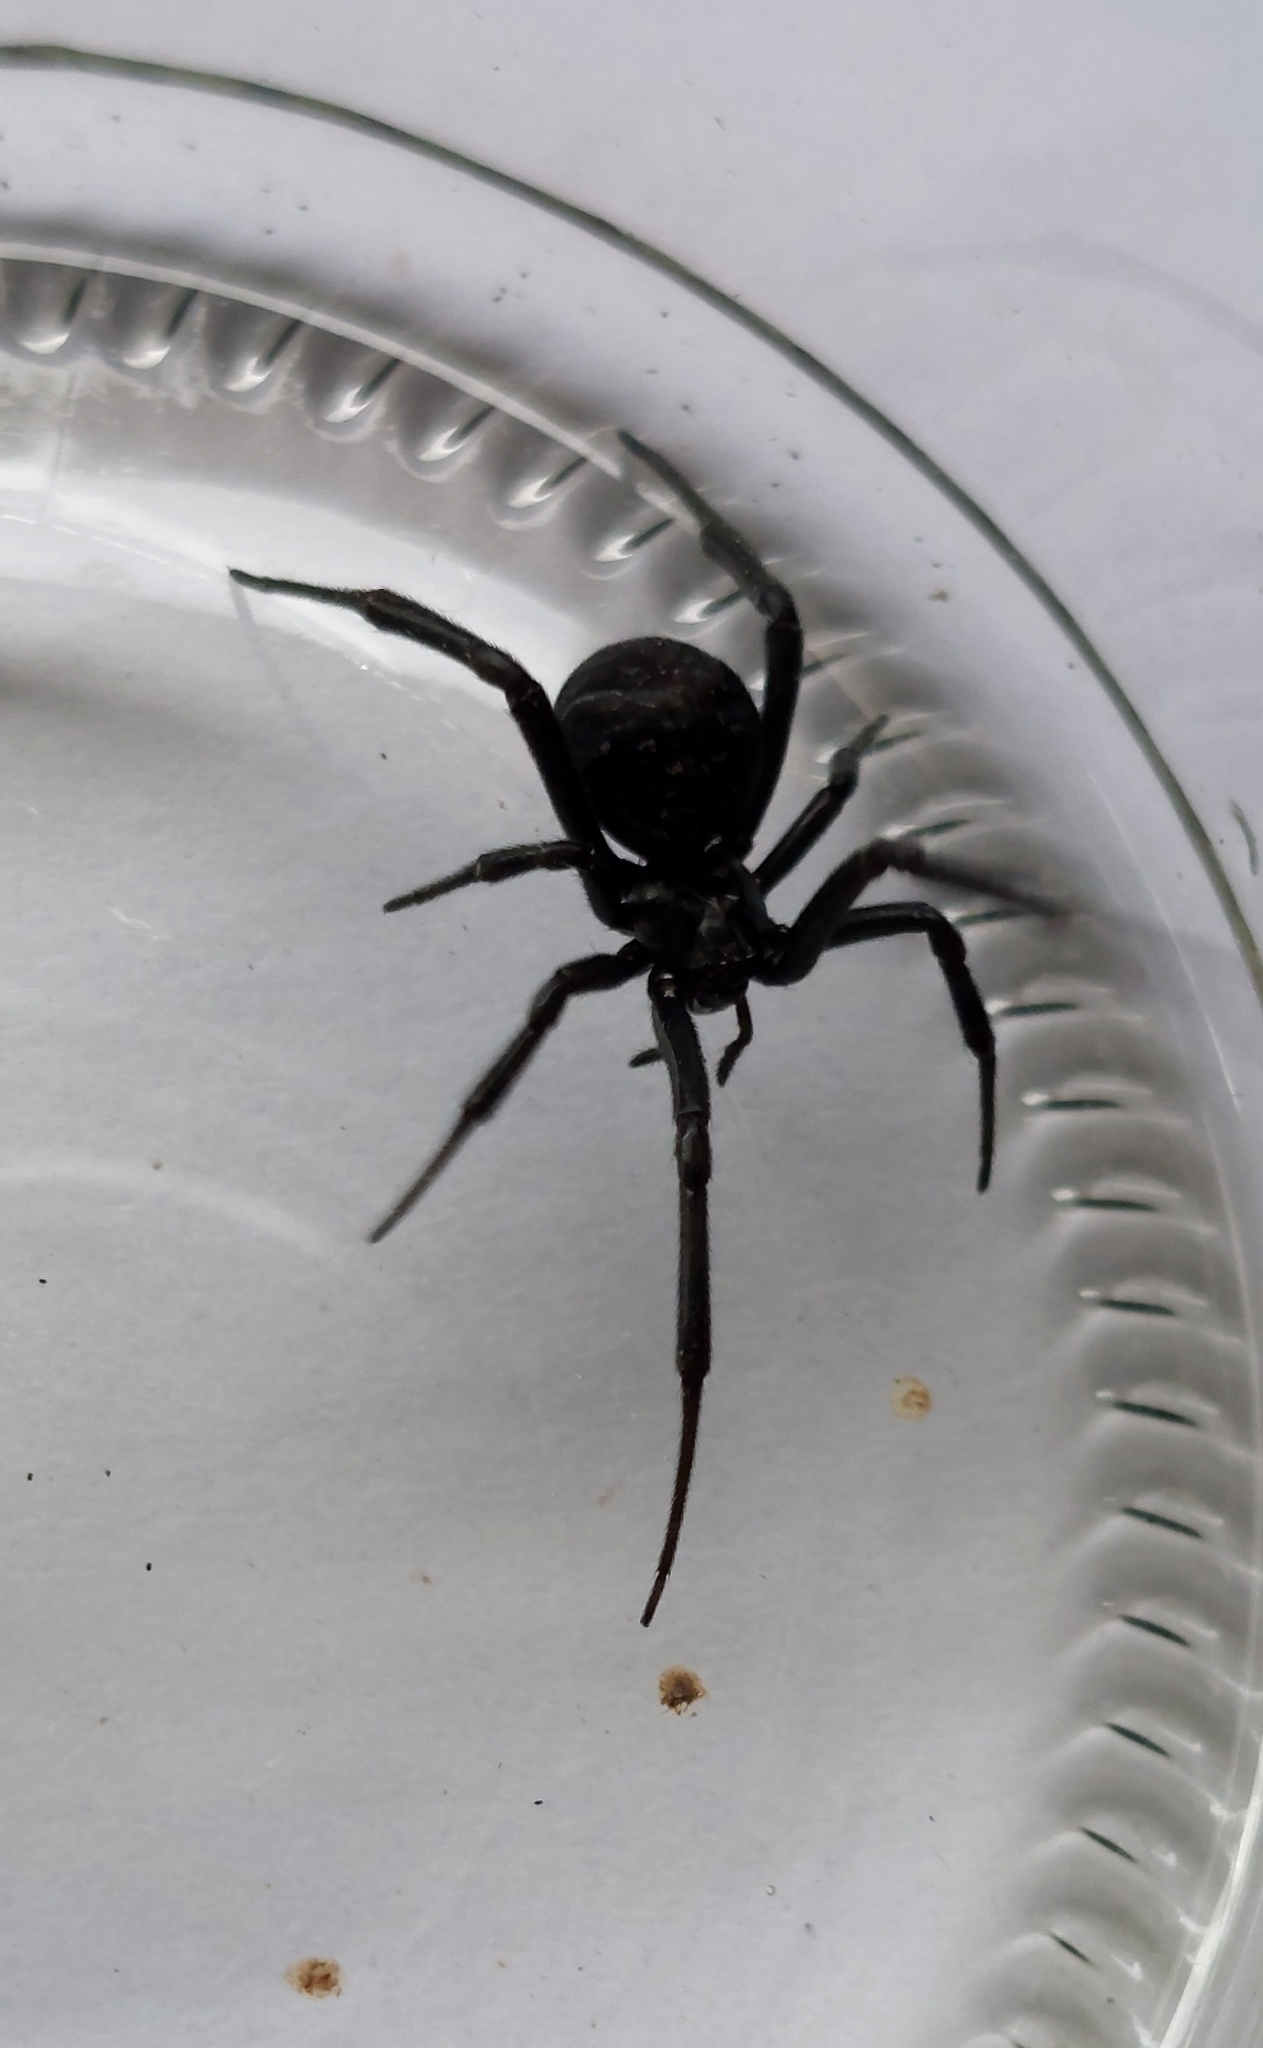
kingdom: Animalia
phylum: Arthropoda
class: Arachnida
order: Araneae
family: Theridiidae
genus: Latrodectus
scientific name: Latrodectus mirabilis
